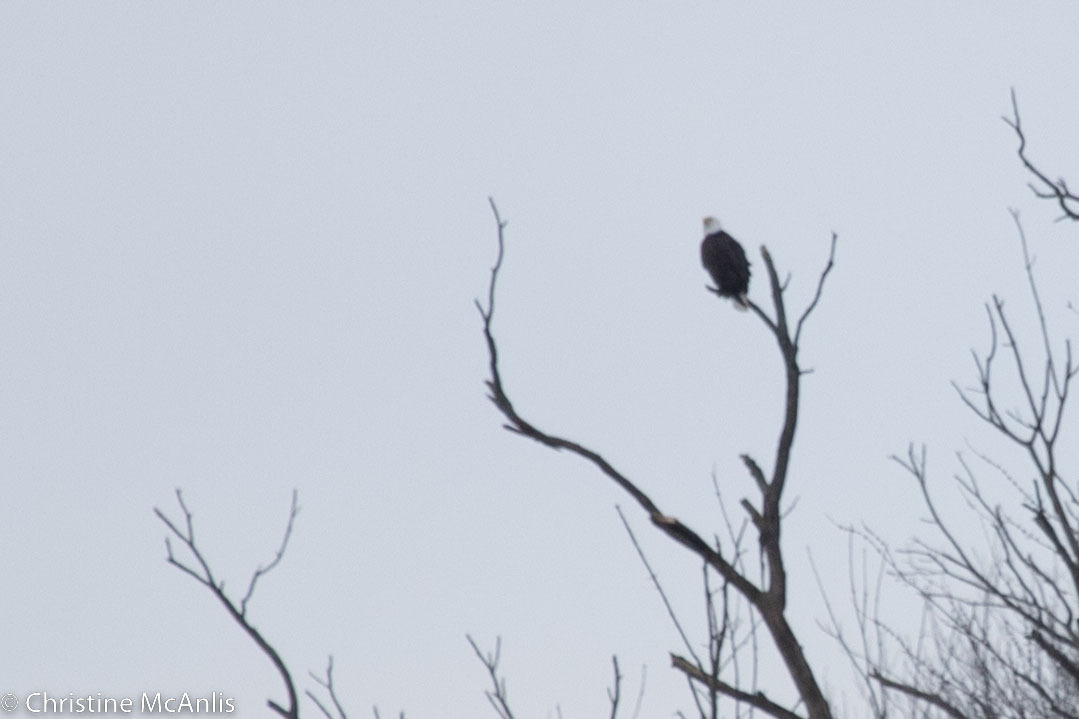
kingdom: Animalia
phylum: Chordata
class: Aves
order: Accipitriformes
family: Accipitridae
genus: Haliaeetus
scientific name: Haliaeetus leucocephalus
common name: Bald eagle
